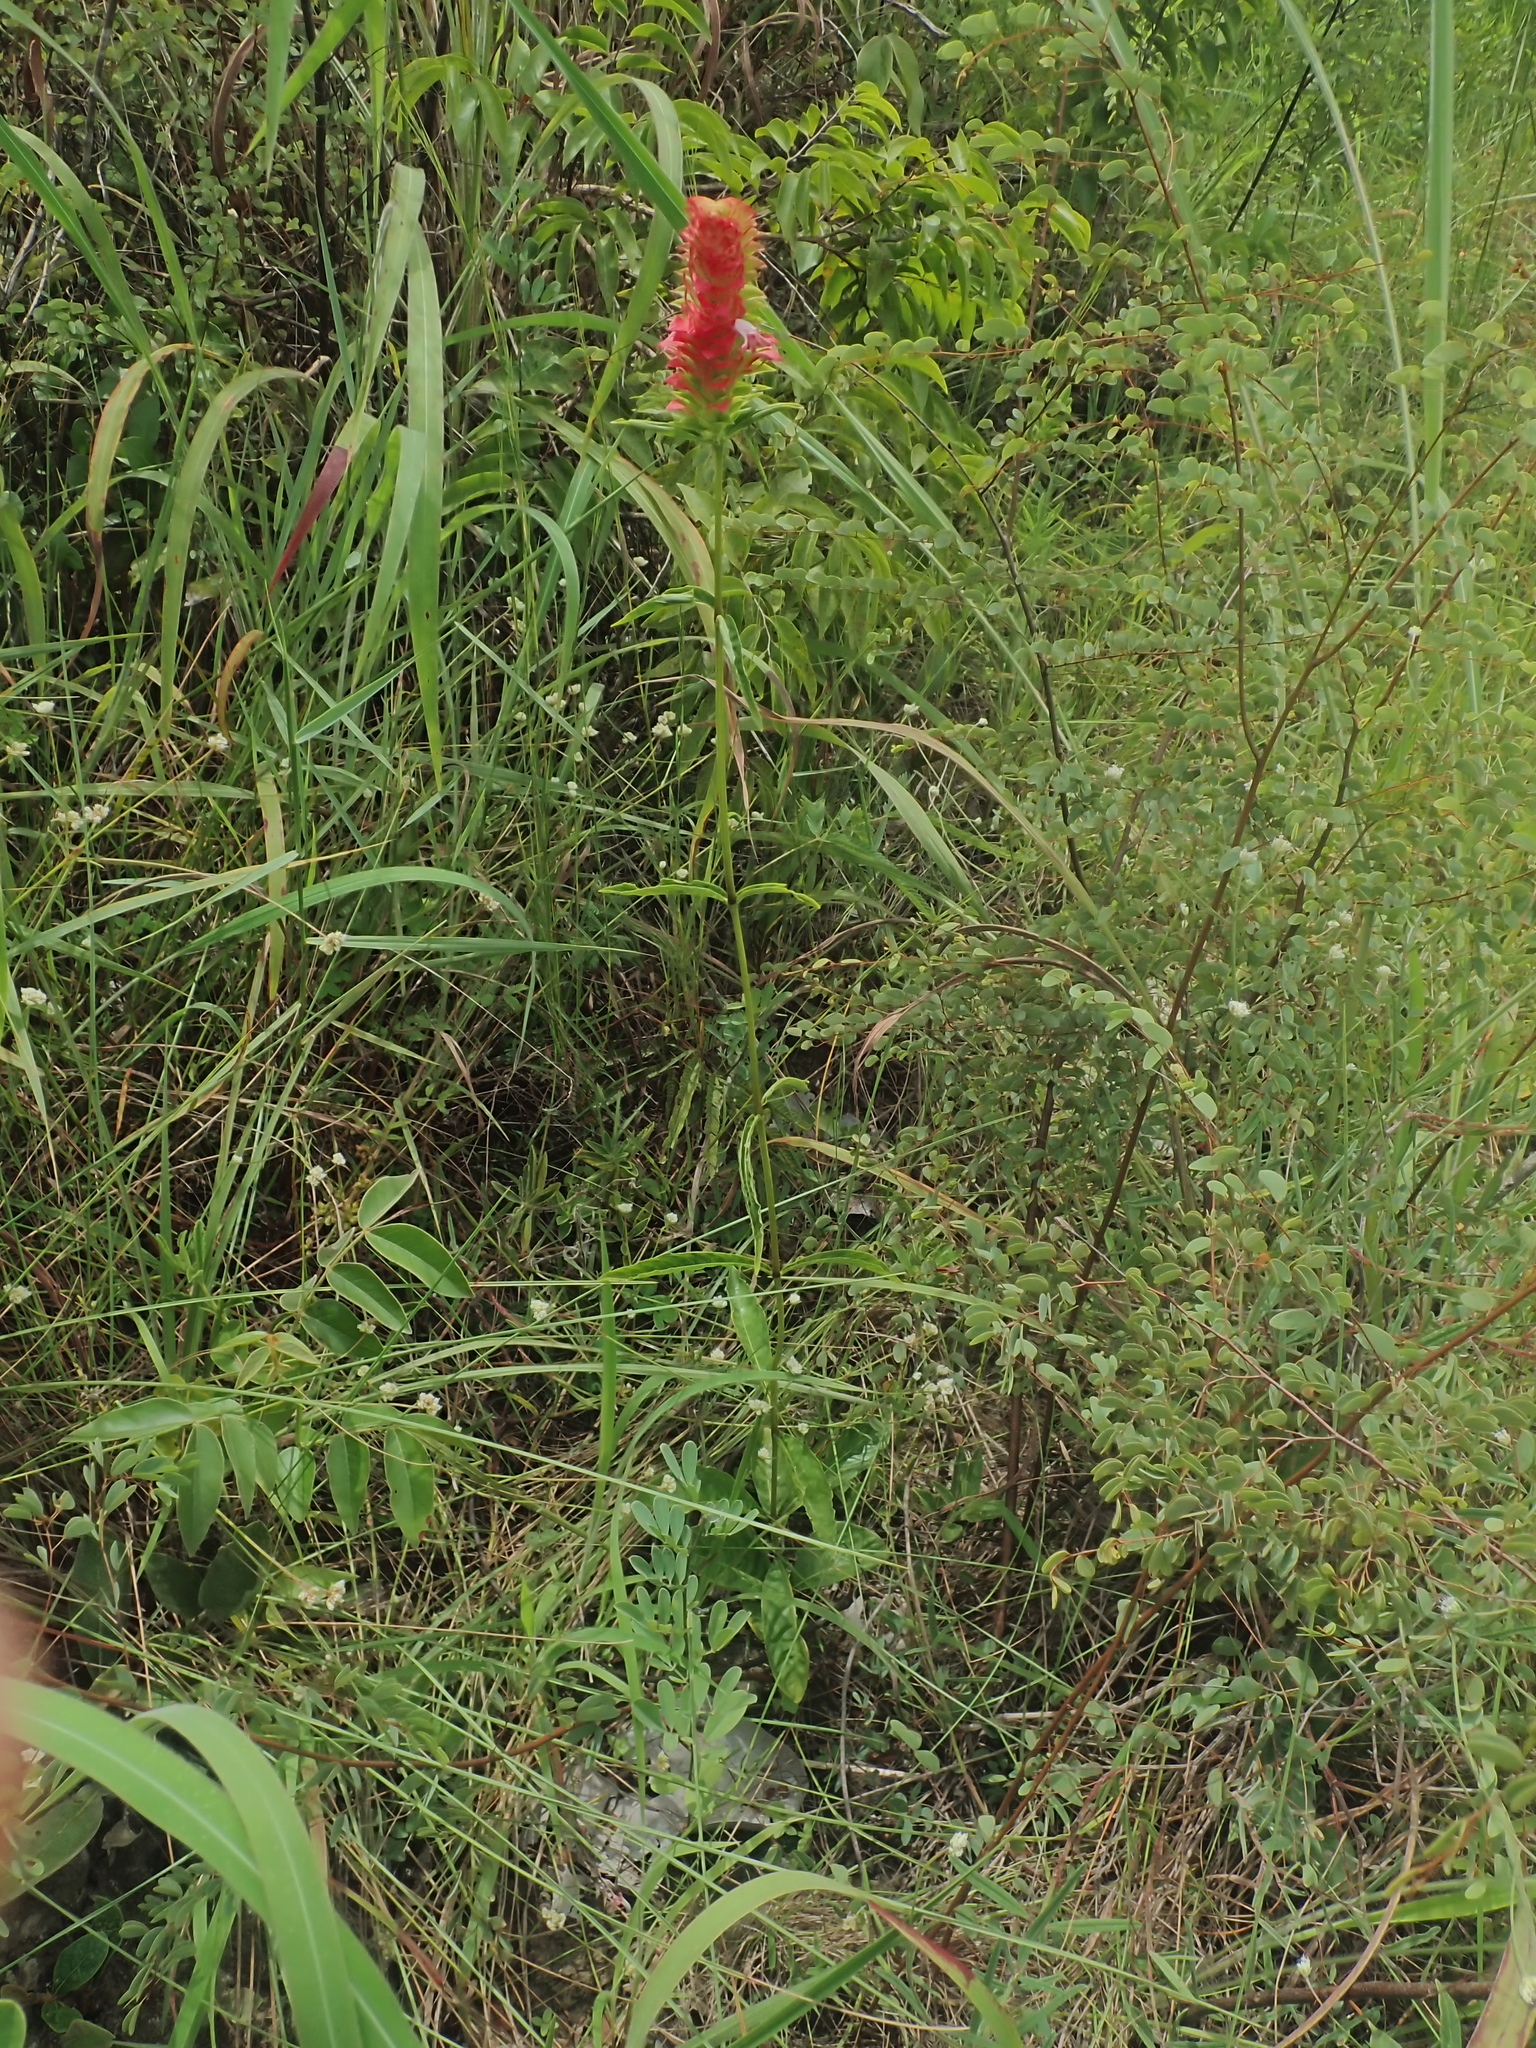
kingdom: Plantae
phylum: Tracheophyta
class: Magnoliopsida
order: Lamiales
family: Acanthaceae
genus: Lepidagathis
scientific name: Lepidagathis sessilifolia
